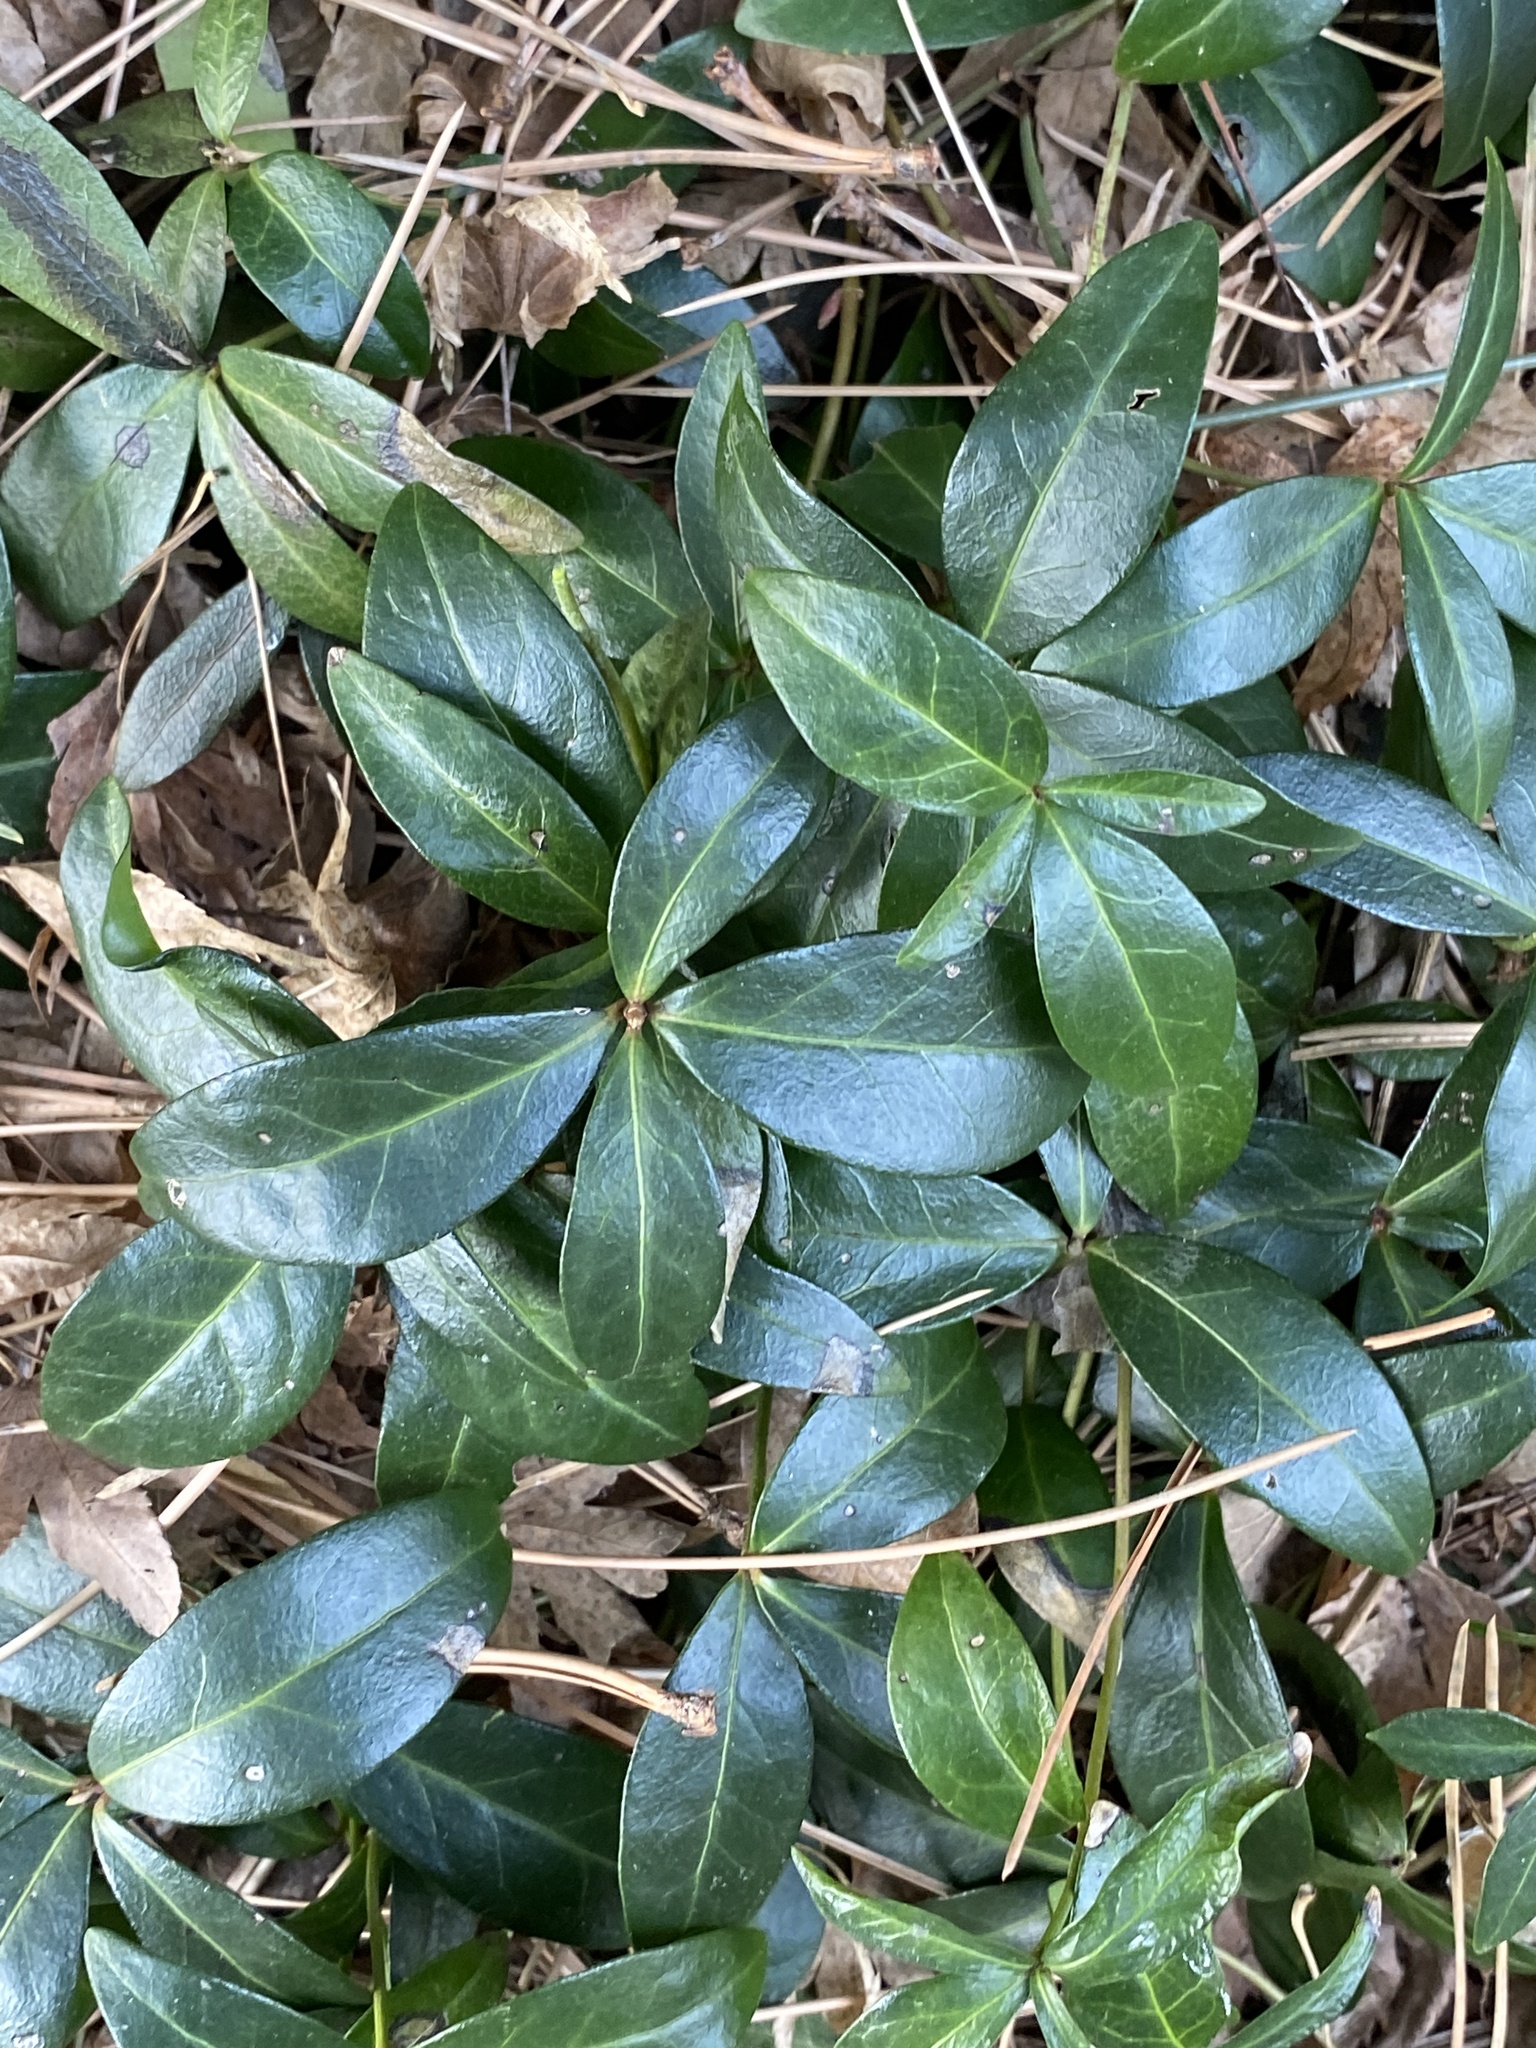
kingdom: Plantae
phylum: Tracheophyta
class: Magnoliopsida
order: Gentianales
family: Apocynaceae
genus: Vinca
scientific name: Vinca minor
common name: Lesser periwinkle
